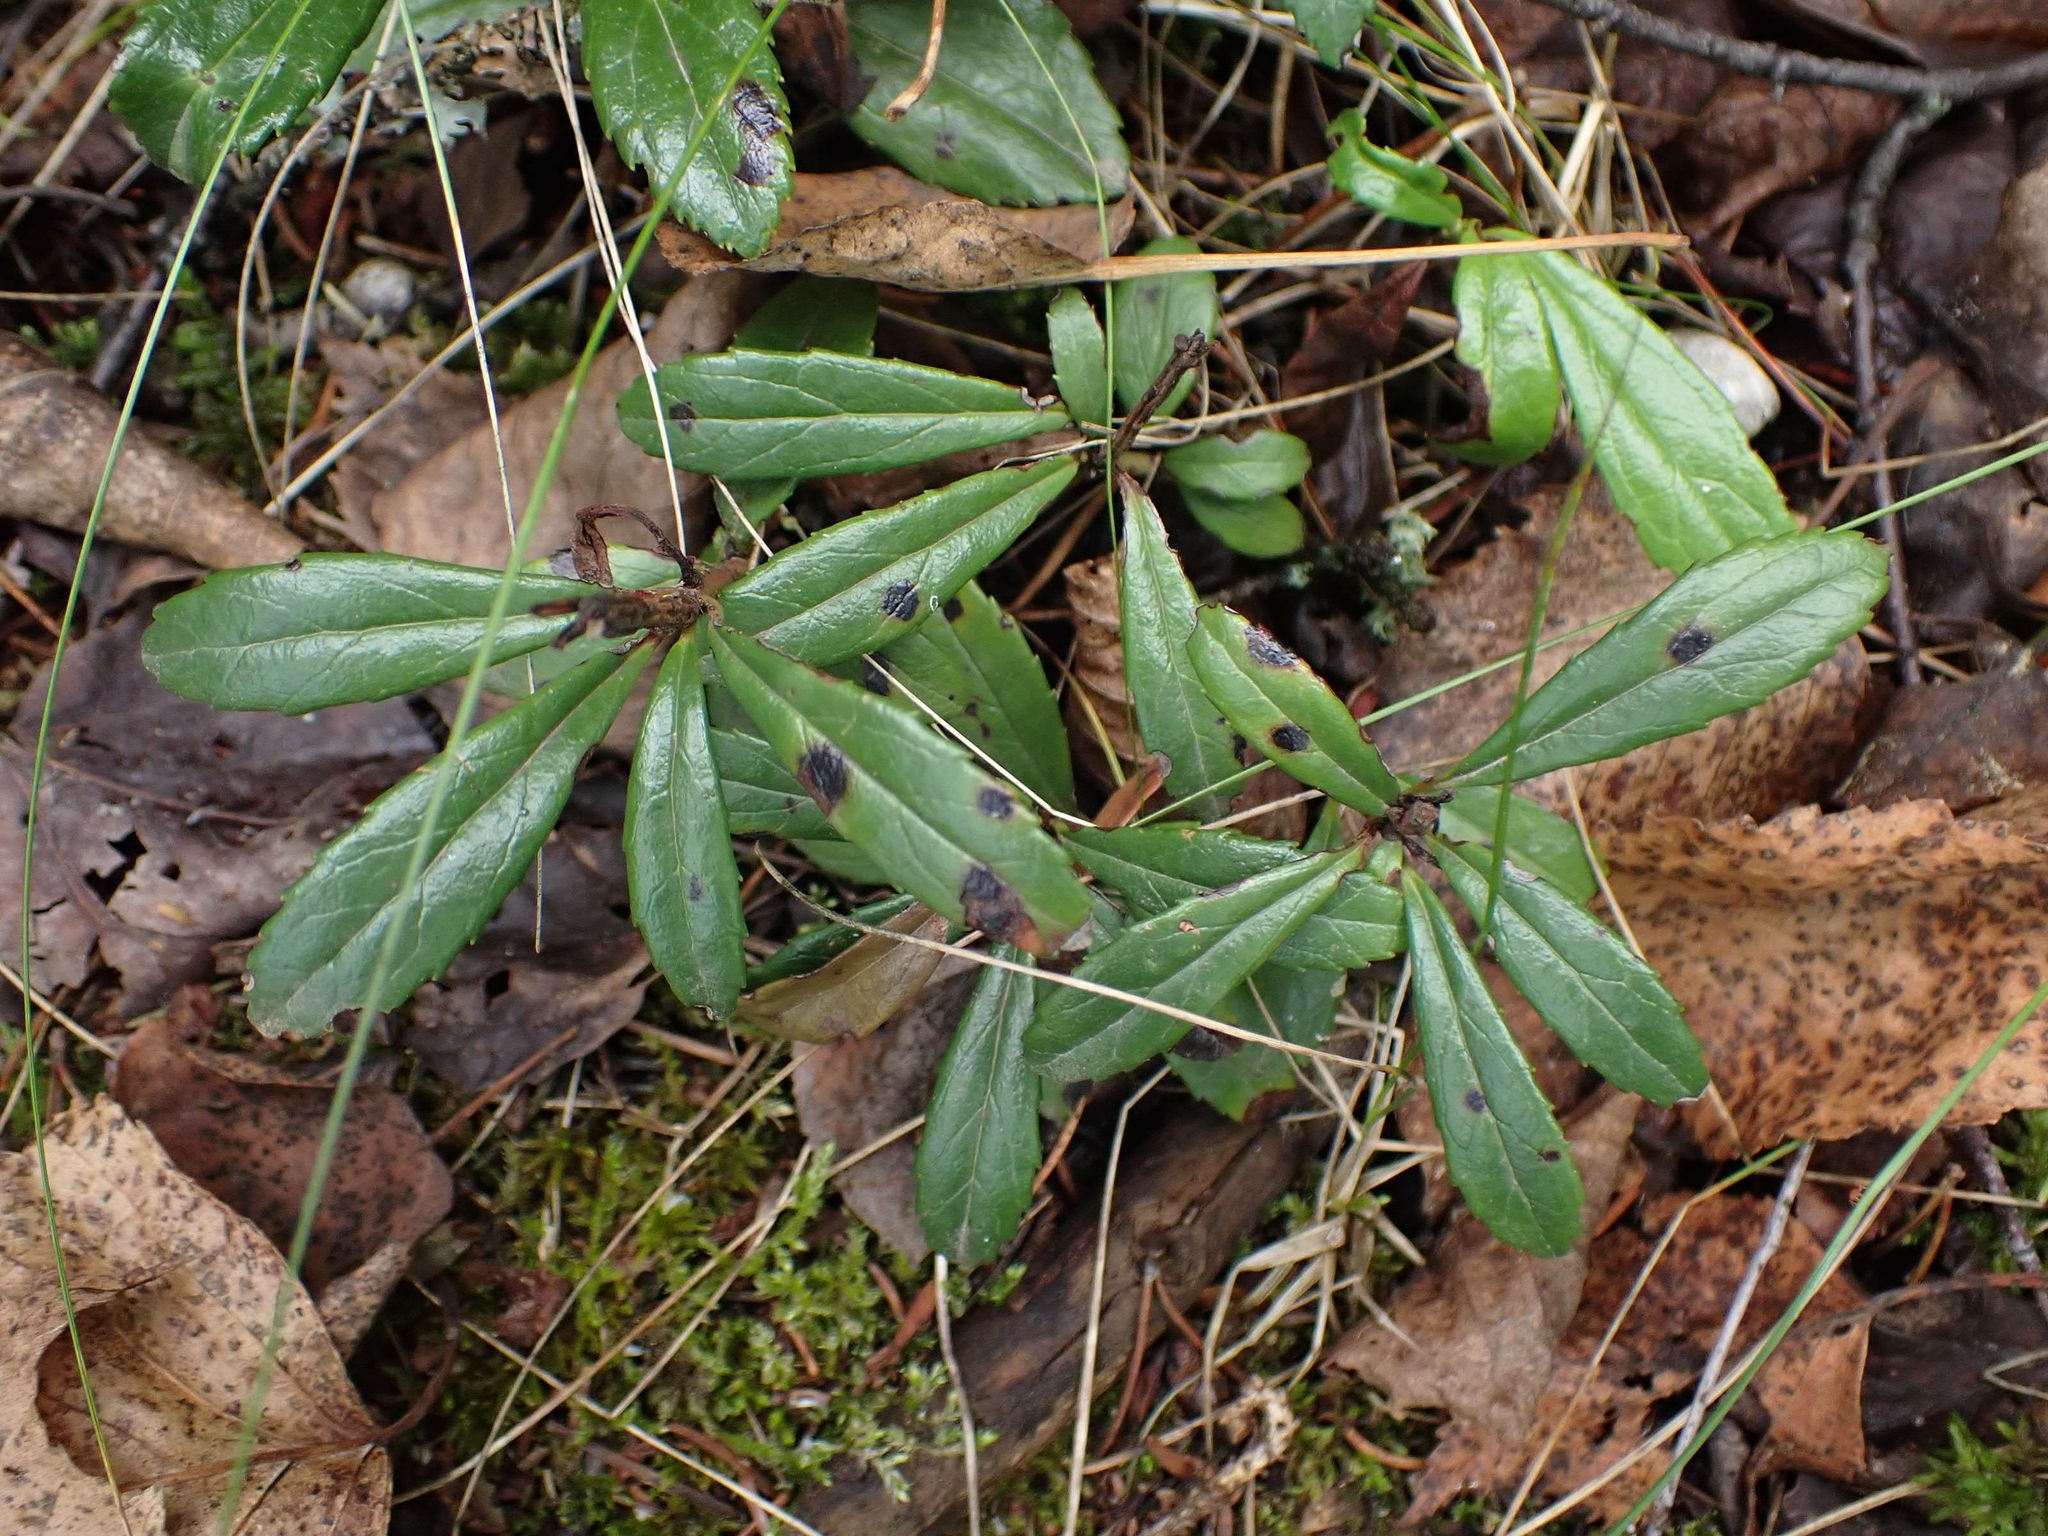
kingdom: Plantae
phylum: Tracheophyta
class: Magnoliopsida
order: Ericales
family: Ericaceae
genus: Chimaphila
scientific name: Chimaphila umbellata
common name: Pipsissewa
